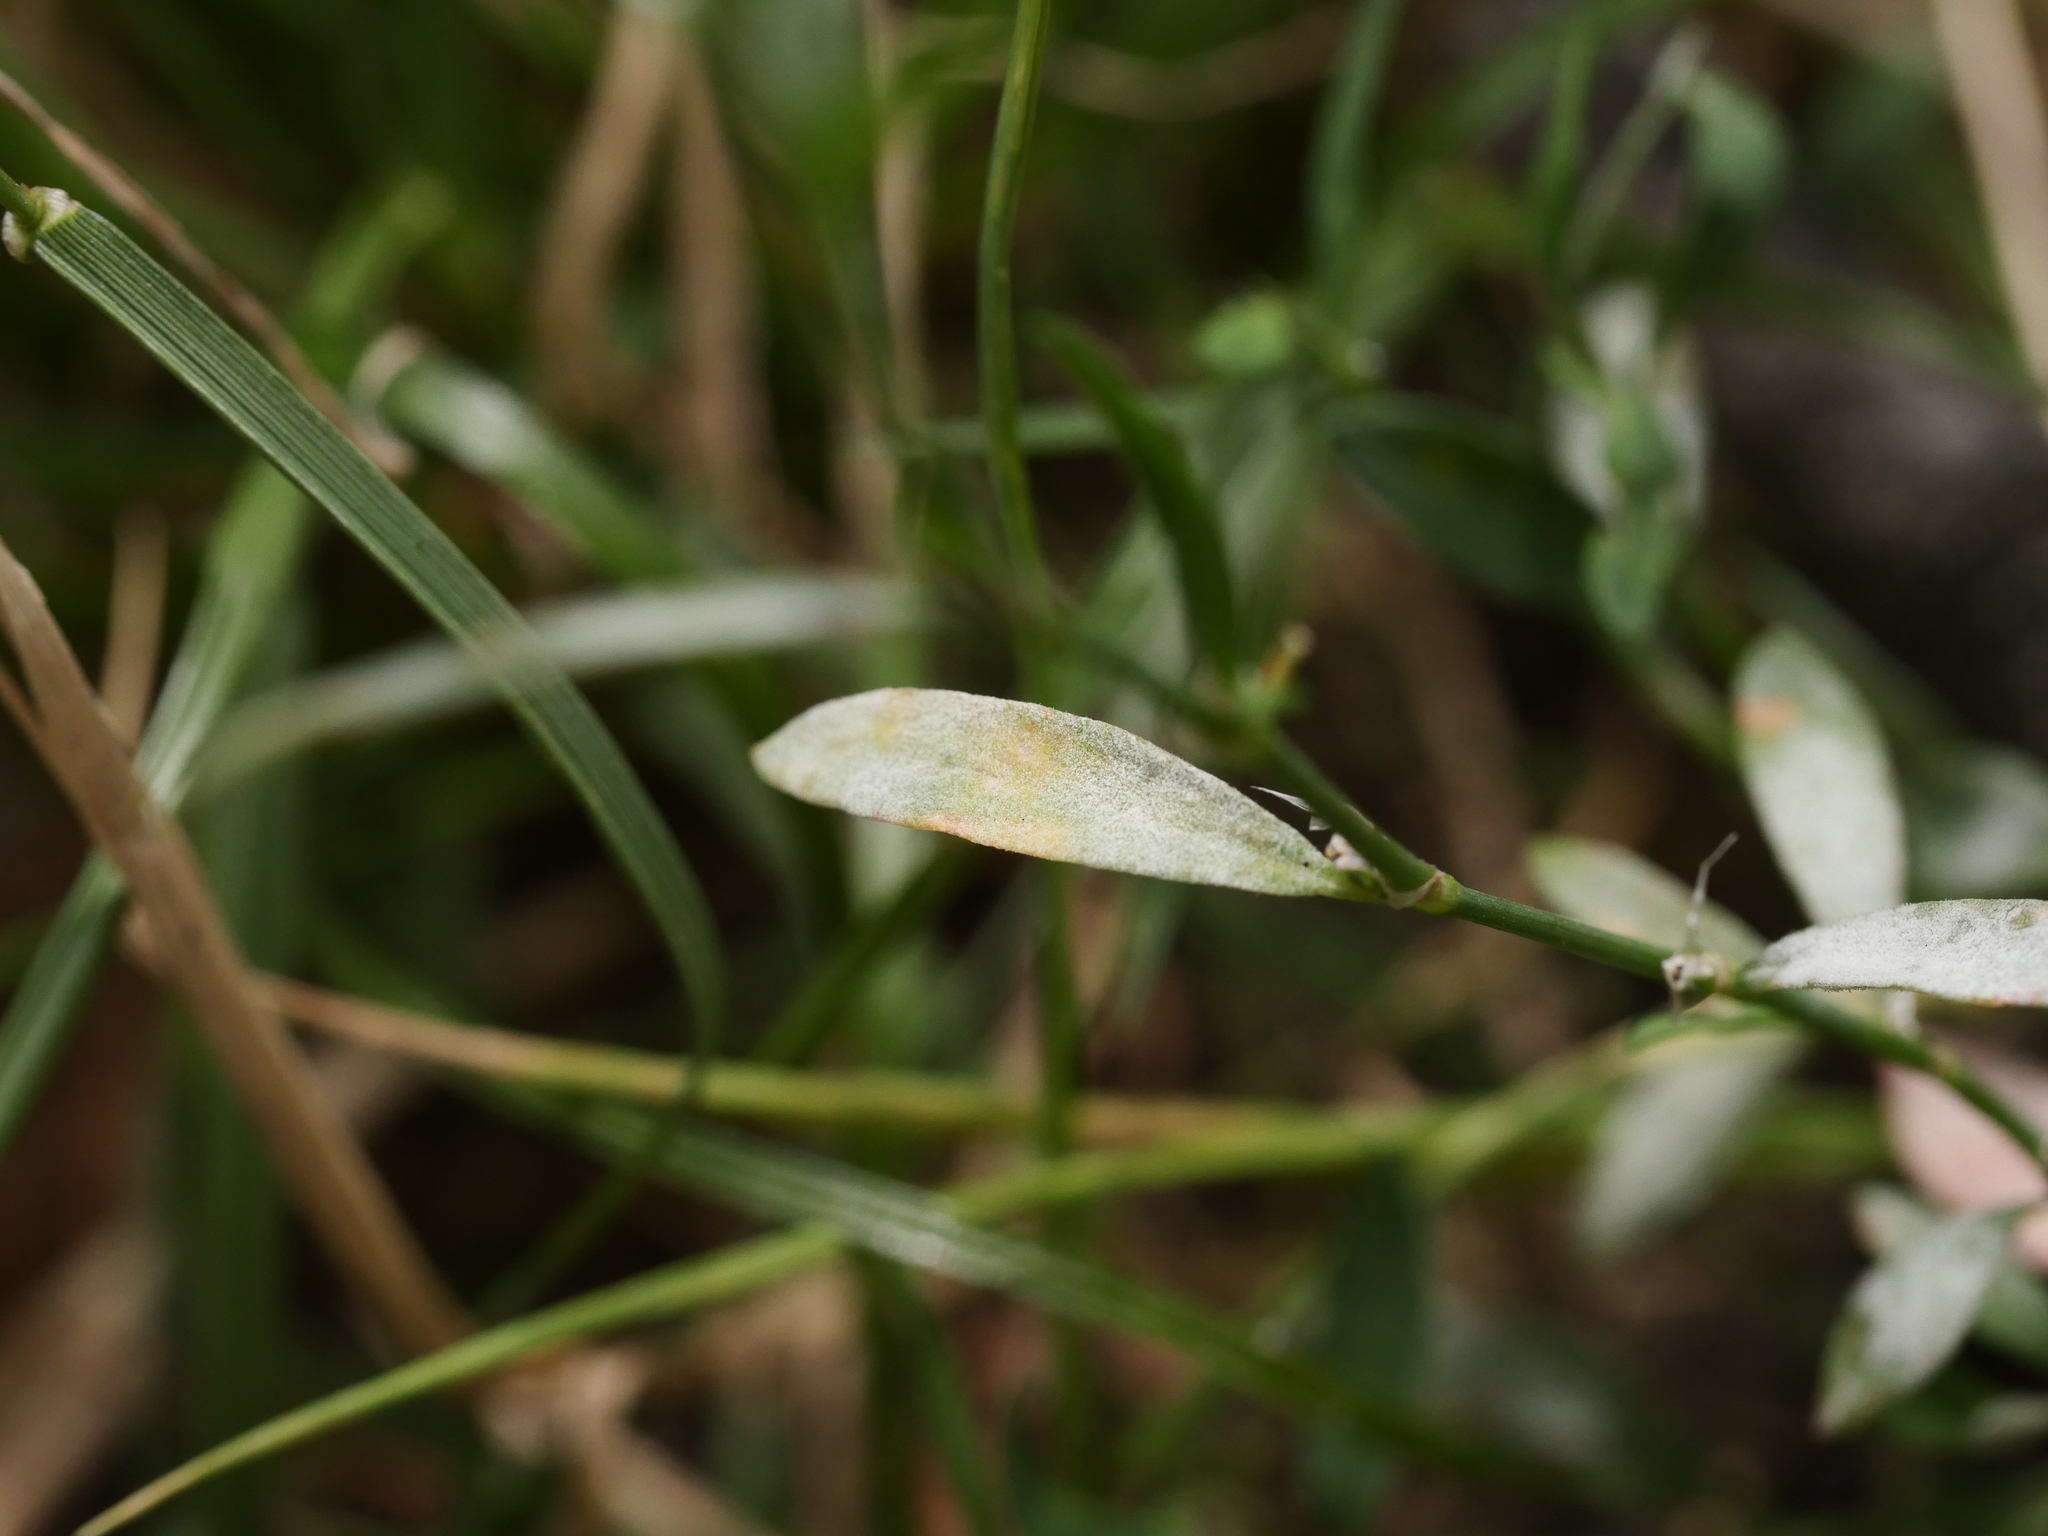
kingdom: Fungi
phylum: Ascomycota
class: Leotiomycetes
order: Helotiales
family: Erysiphaceae
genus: Erysiphe
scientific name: Erysiphe polygoni
